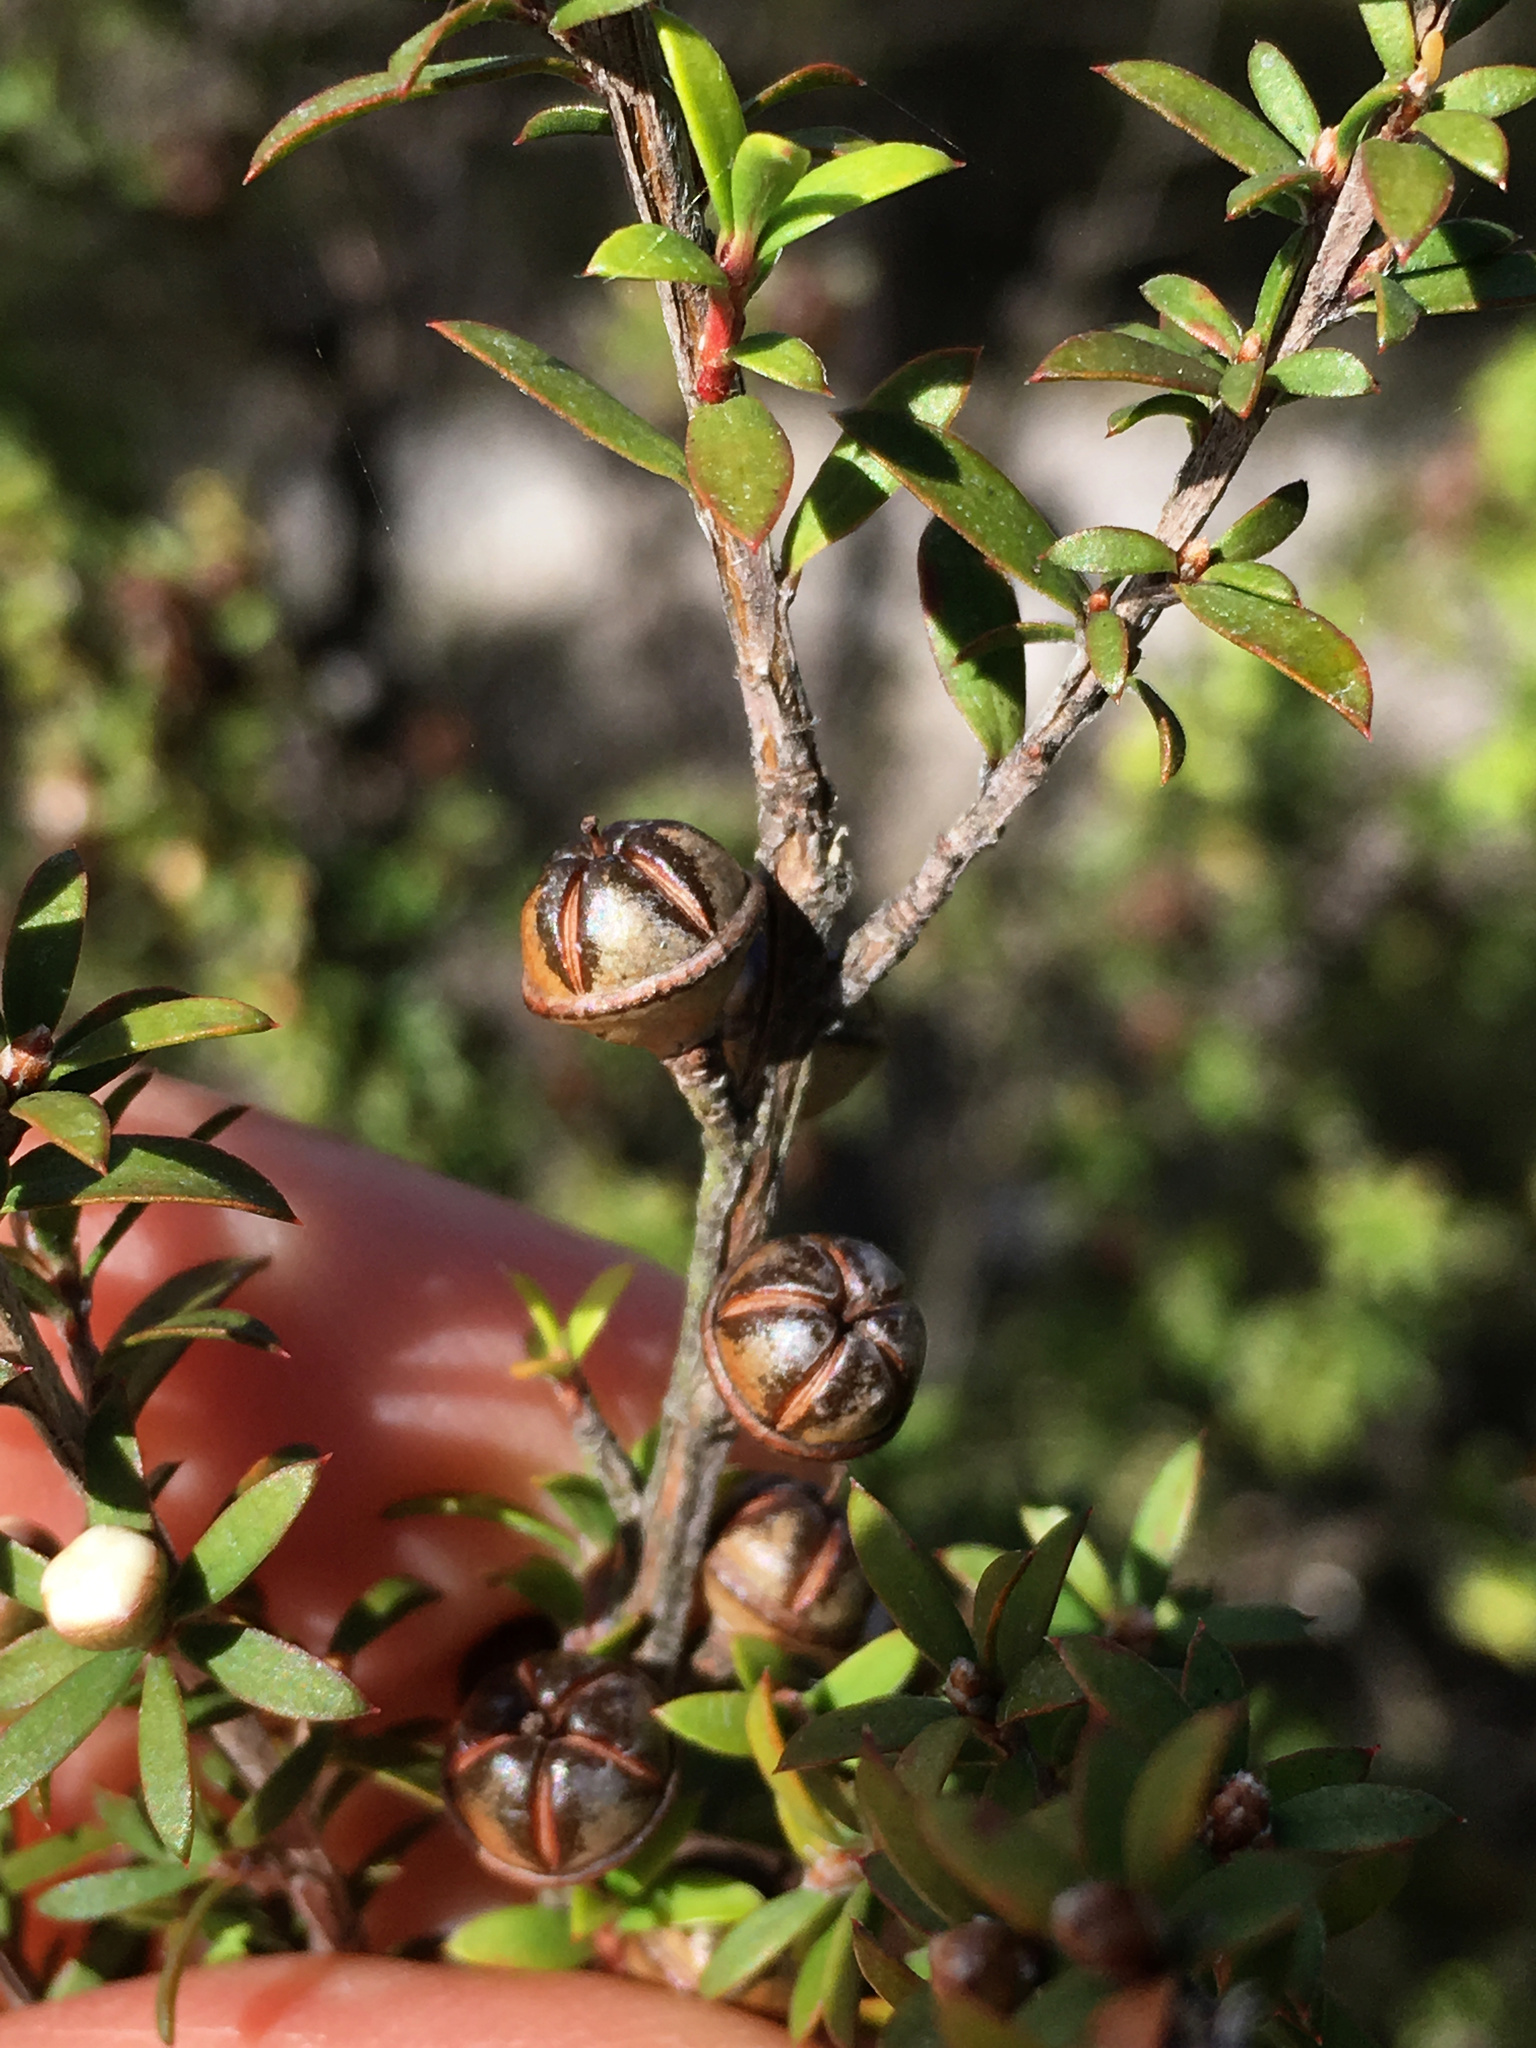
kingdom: Plantae
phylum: Tracheophyta
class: Magnoliopsida
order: Myrtales
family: Myrtaceae
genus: Leptospermum
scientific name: Leptospermum scoparium
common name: Broom tea-tree
